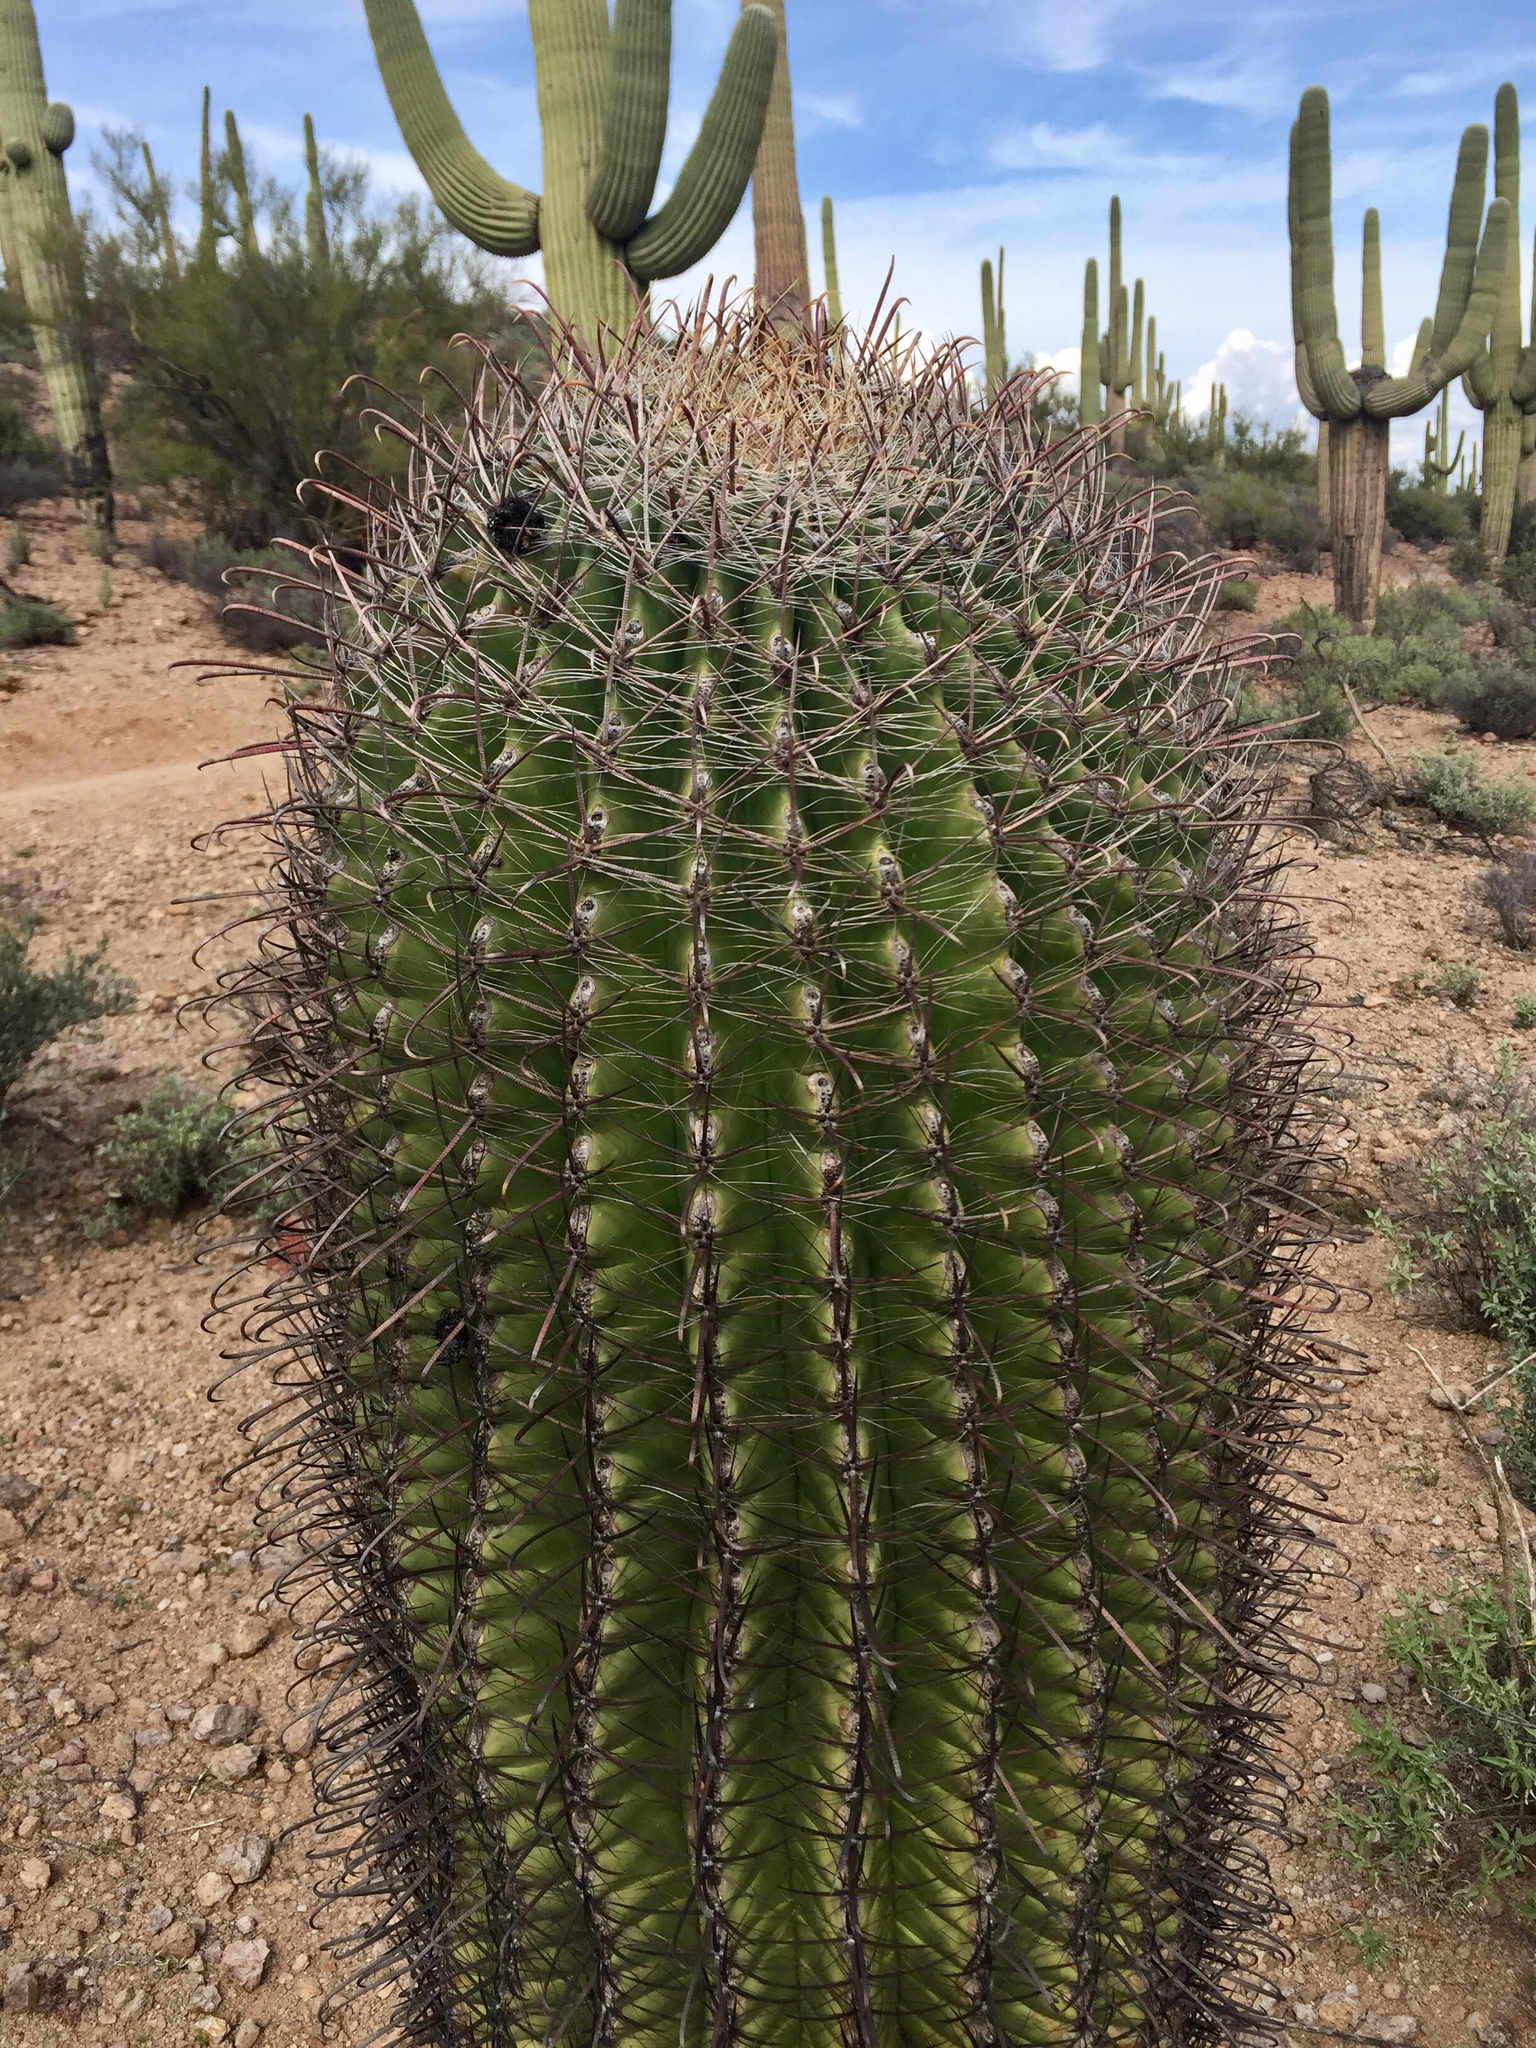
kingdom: Plantae
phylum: Tracheophyta
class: Magnoliopsida
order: Caryophyllales
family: Cactaceae
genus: Ferocactus
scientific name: Ferocactus wislizeni
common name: Candy barrel cactus
